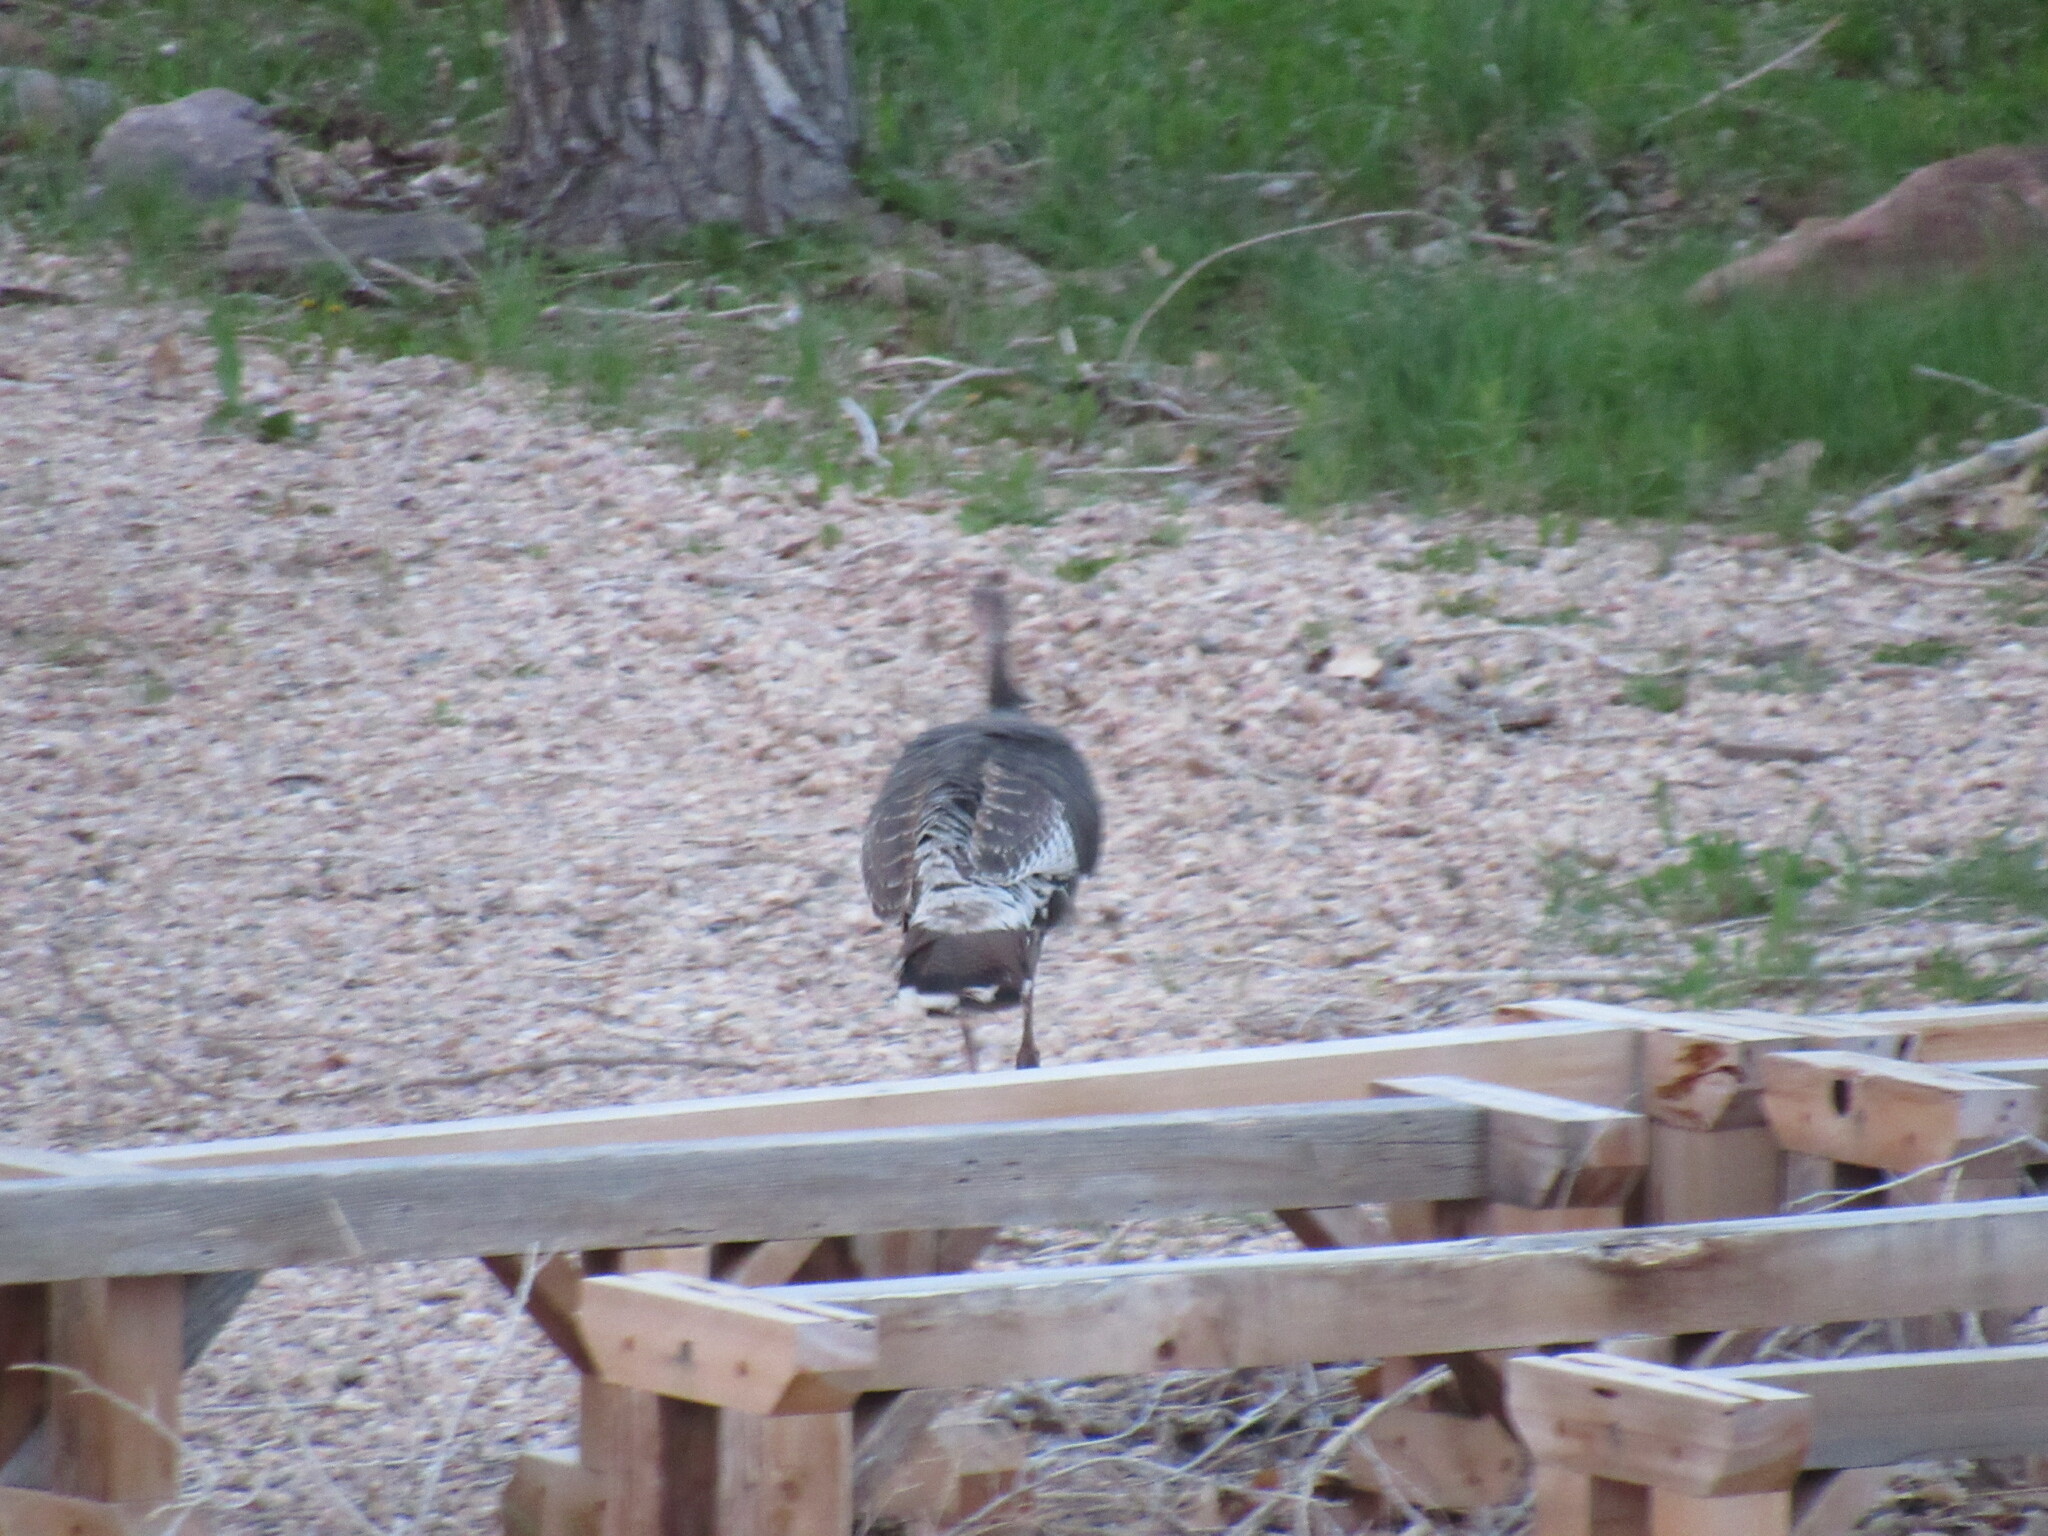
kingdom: Animalia
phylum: Chordata
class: Aves
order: Galliformes
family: Phasianidae
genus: Meleagris
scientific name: Meleagris gallopavo
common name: Wild turkey
